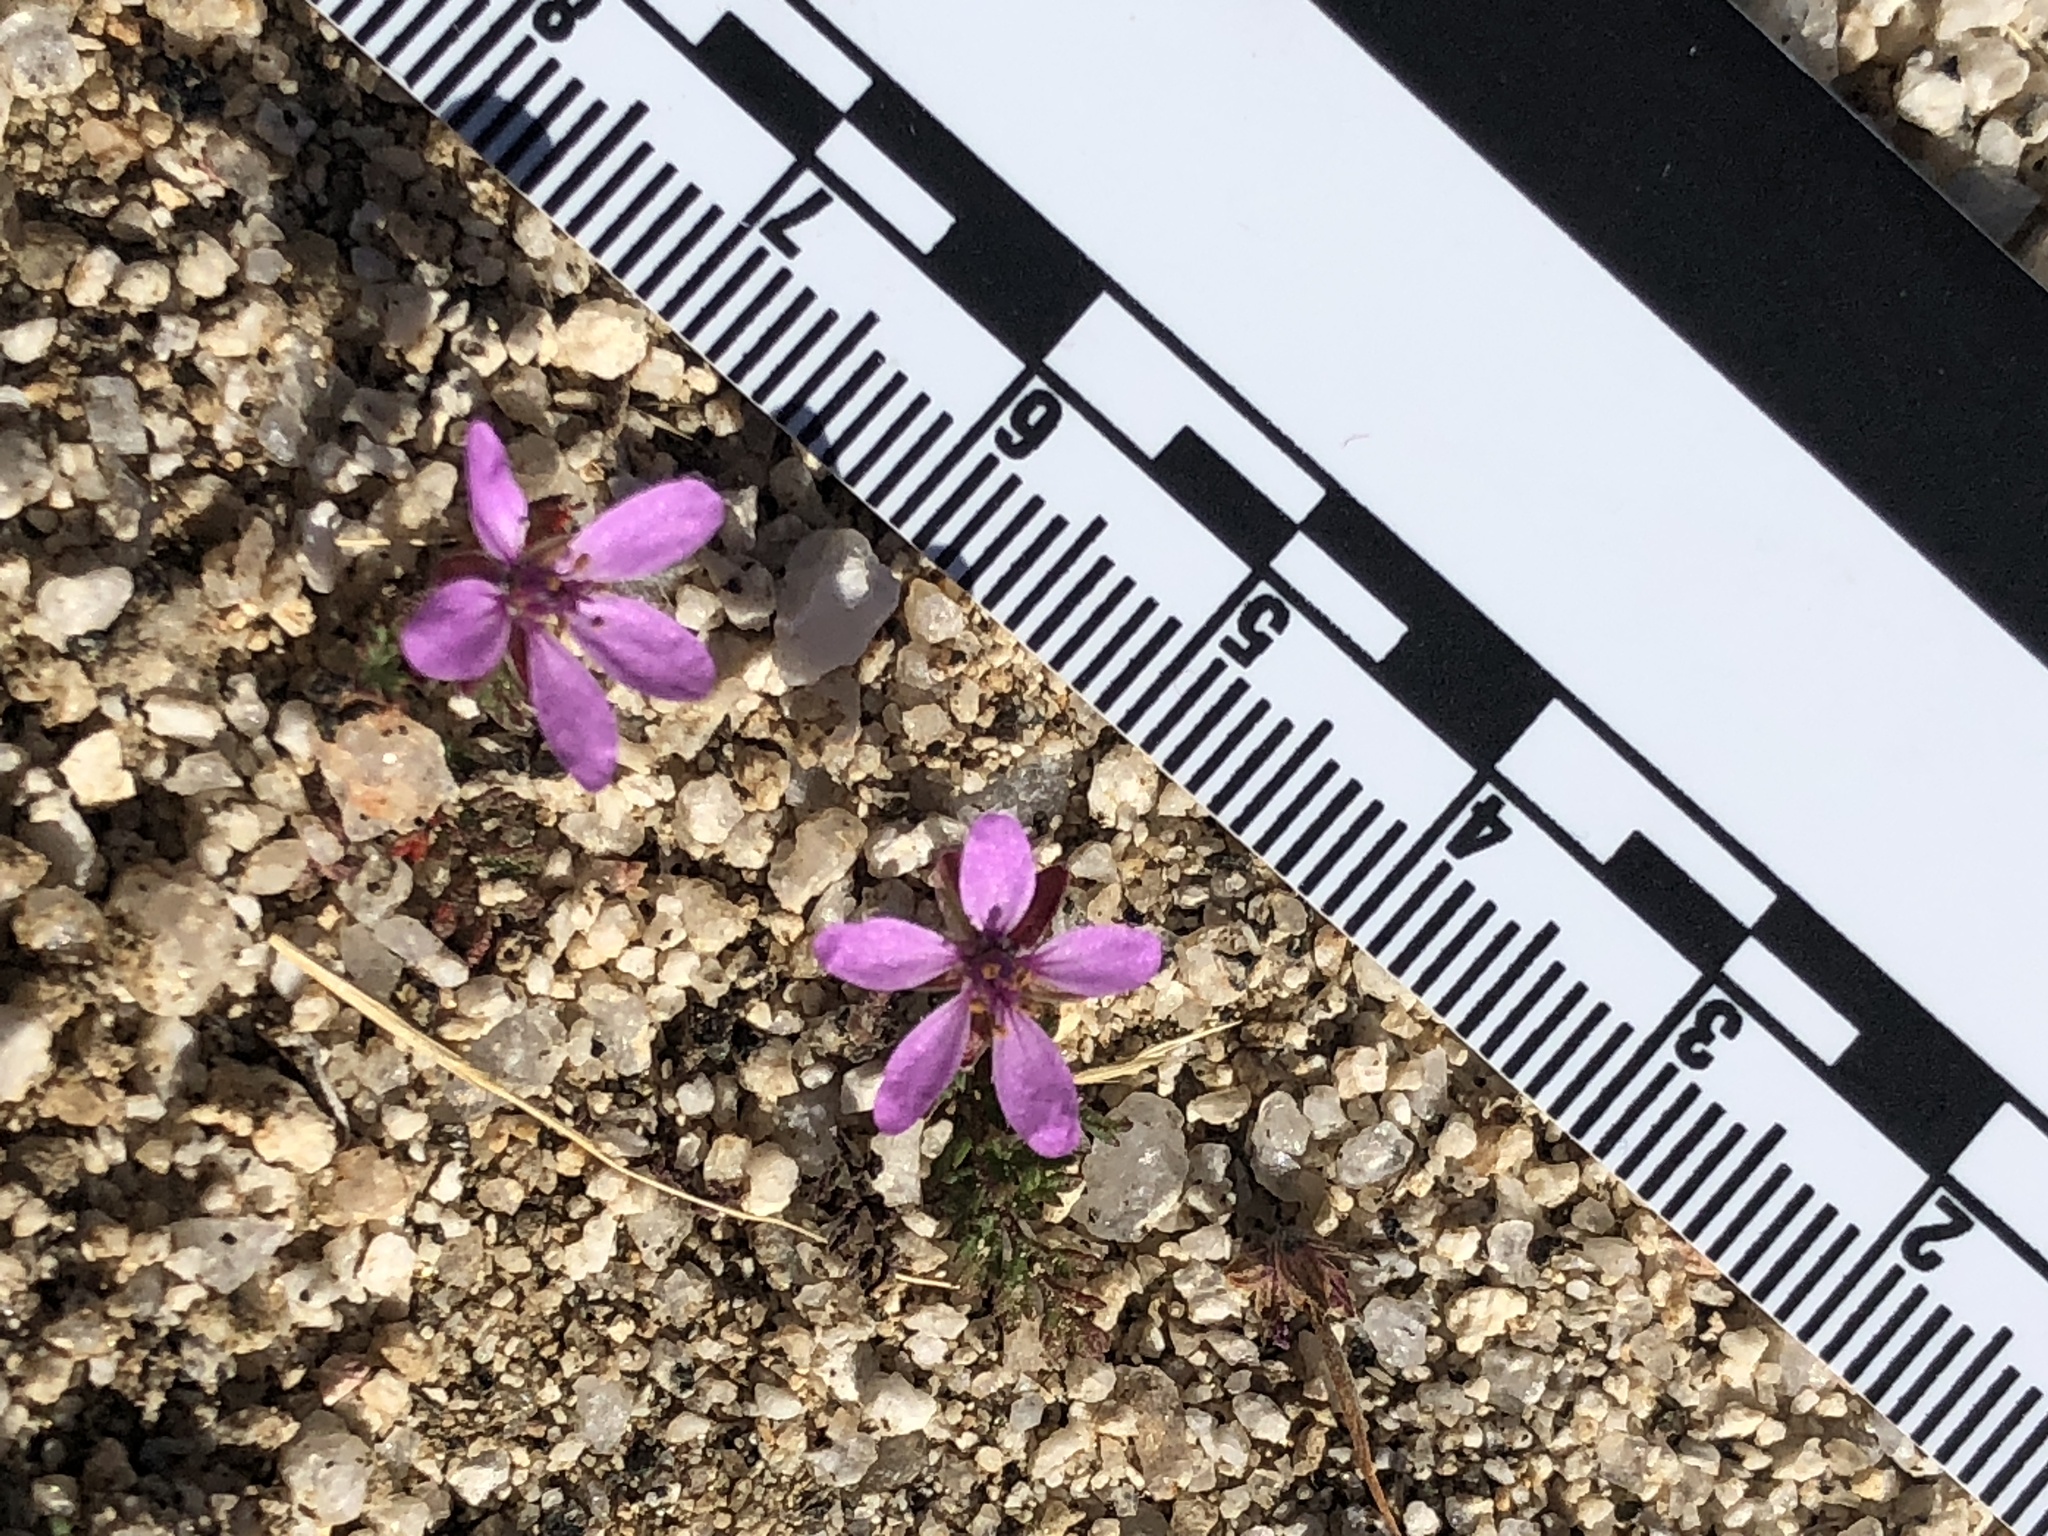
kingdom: Plantae
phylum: Tracheophyta
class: Magnoliopsida
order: Geraniales
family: Geraniaceae
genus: Erodium
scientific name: Erodium cicutarium
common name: Common stork's-bill
